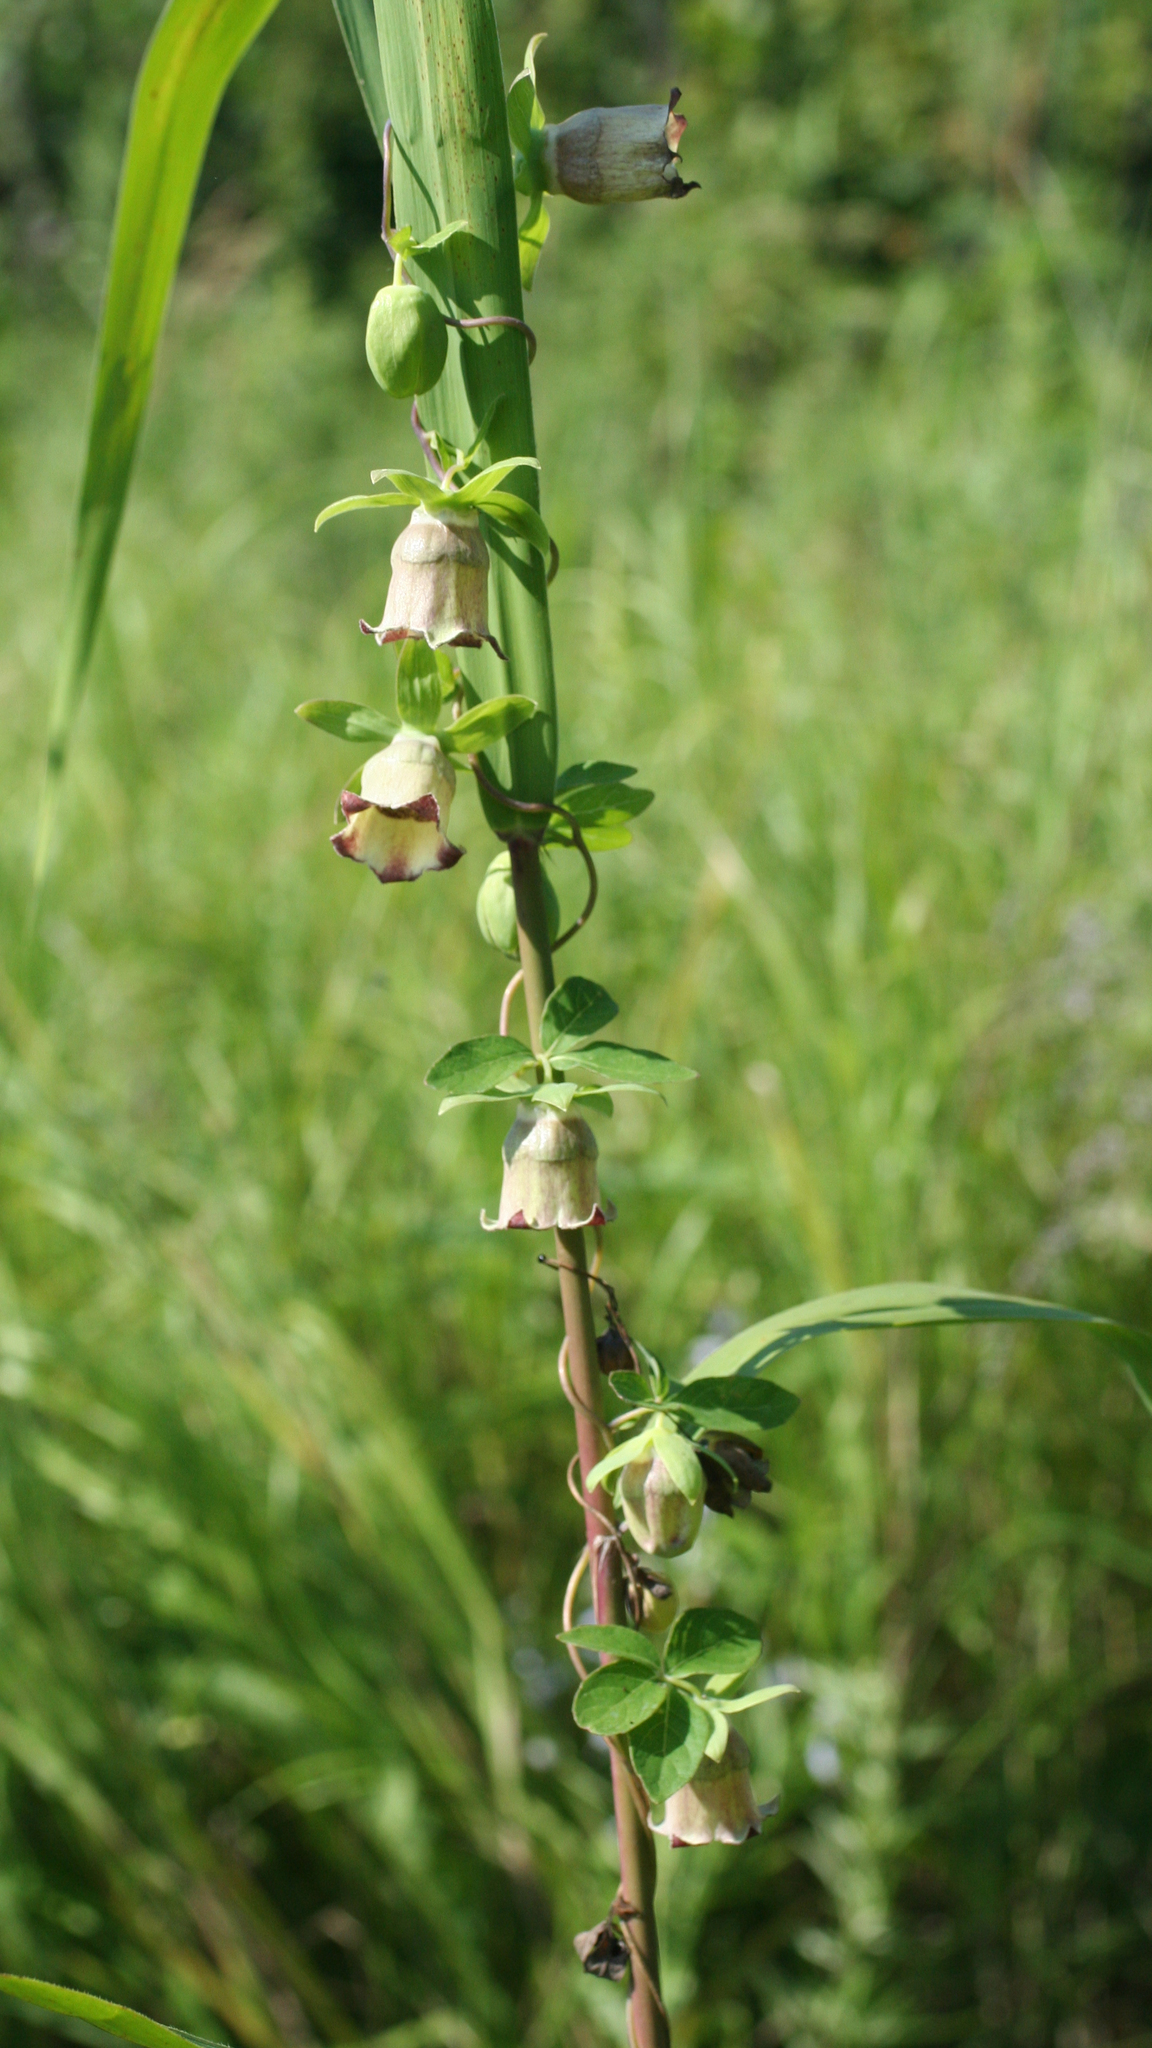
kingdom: Plantae
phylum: Tracheophyta
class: Magnoliopsida
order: Asterales
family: Campanulaceae
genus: Codonopsis
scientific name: Codonopsis ussuriensis
